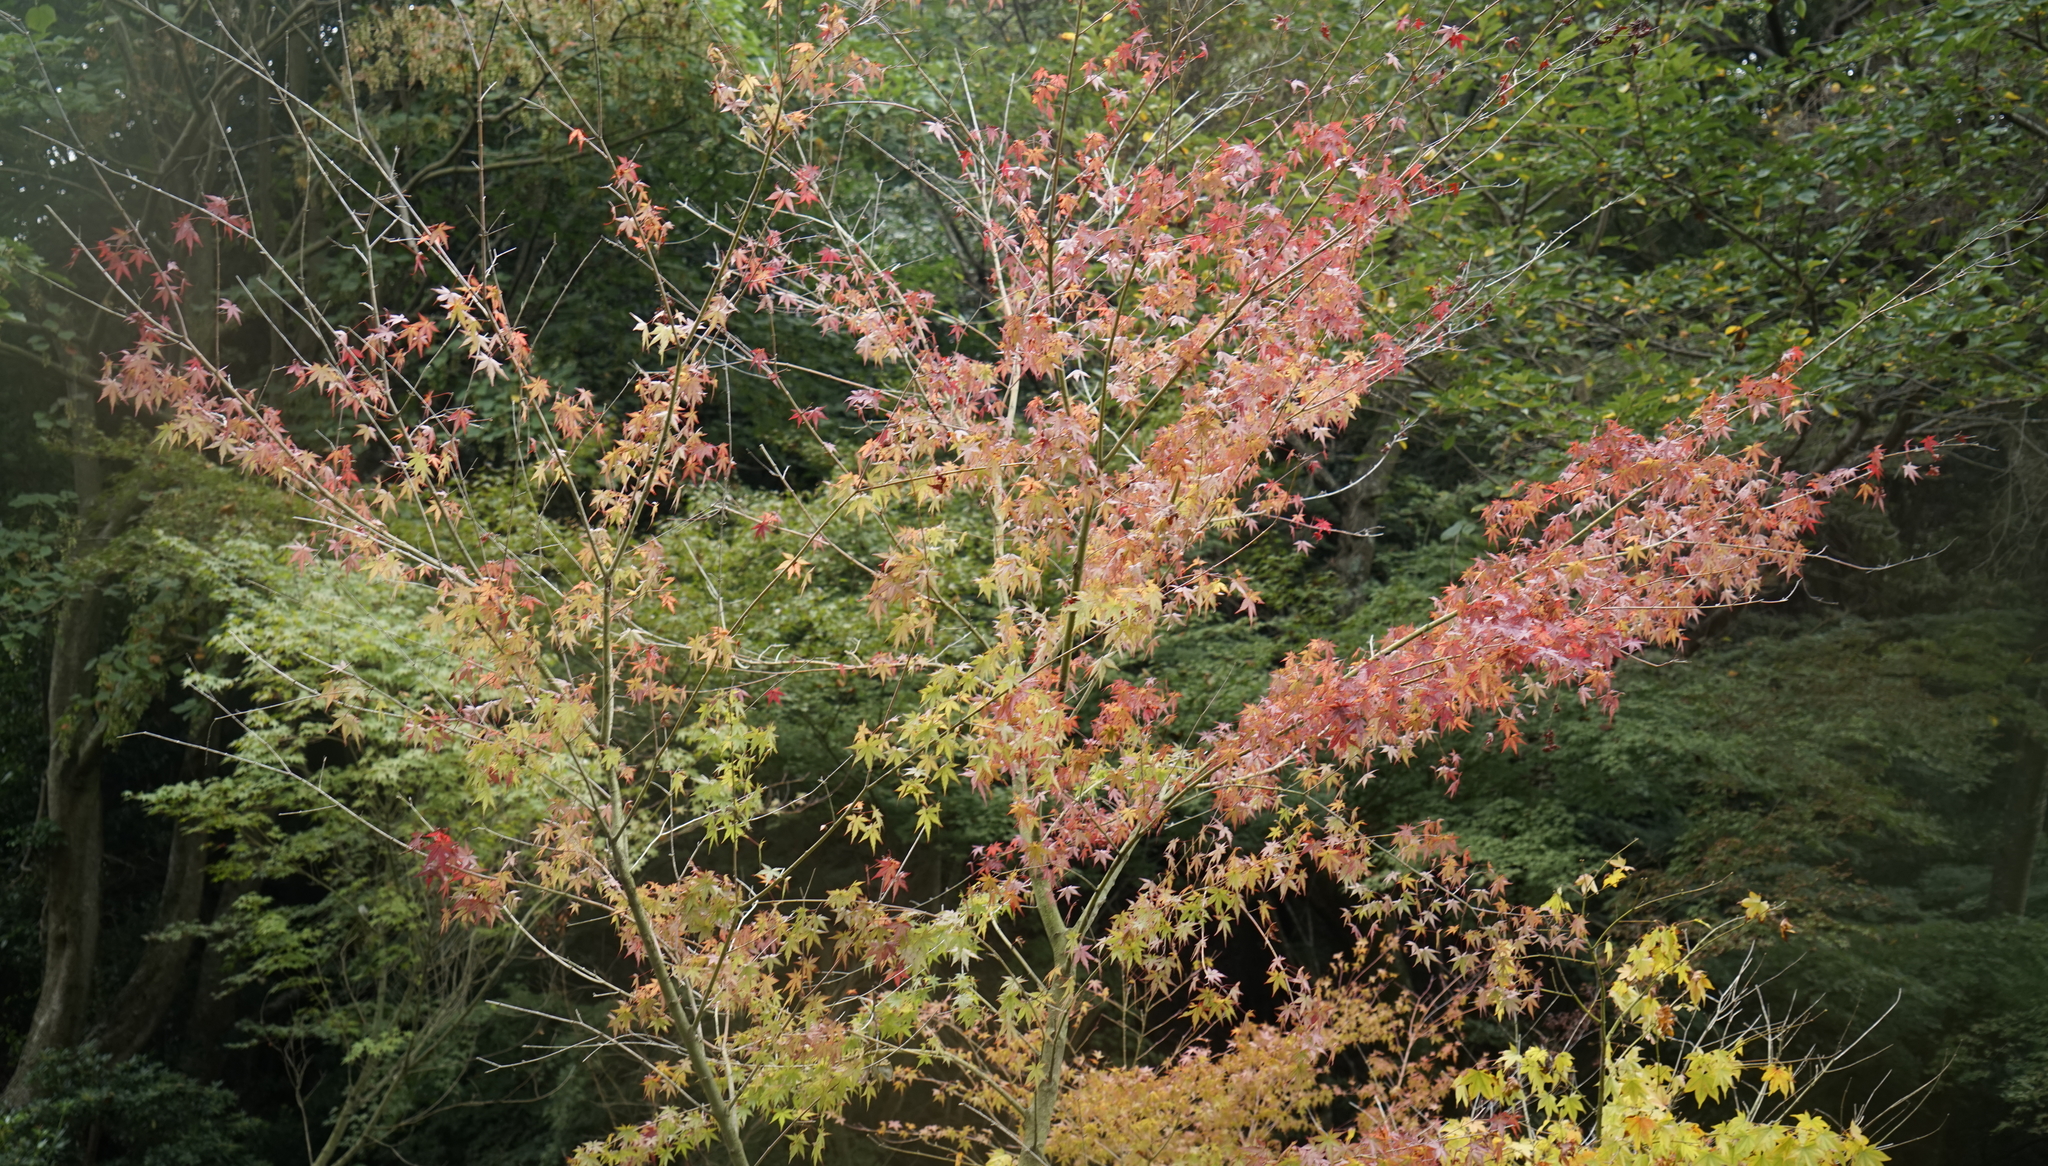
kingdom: Plantae
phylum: Tracheophyta
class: Magnoliopsida
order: Sapindales
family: Sapindaceae
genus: Acer
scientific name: Acer palmatum
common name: Japanese maple
